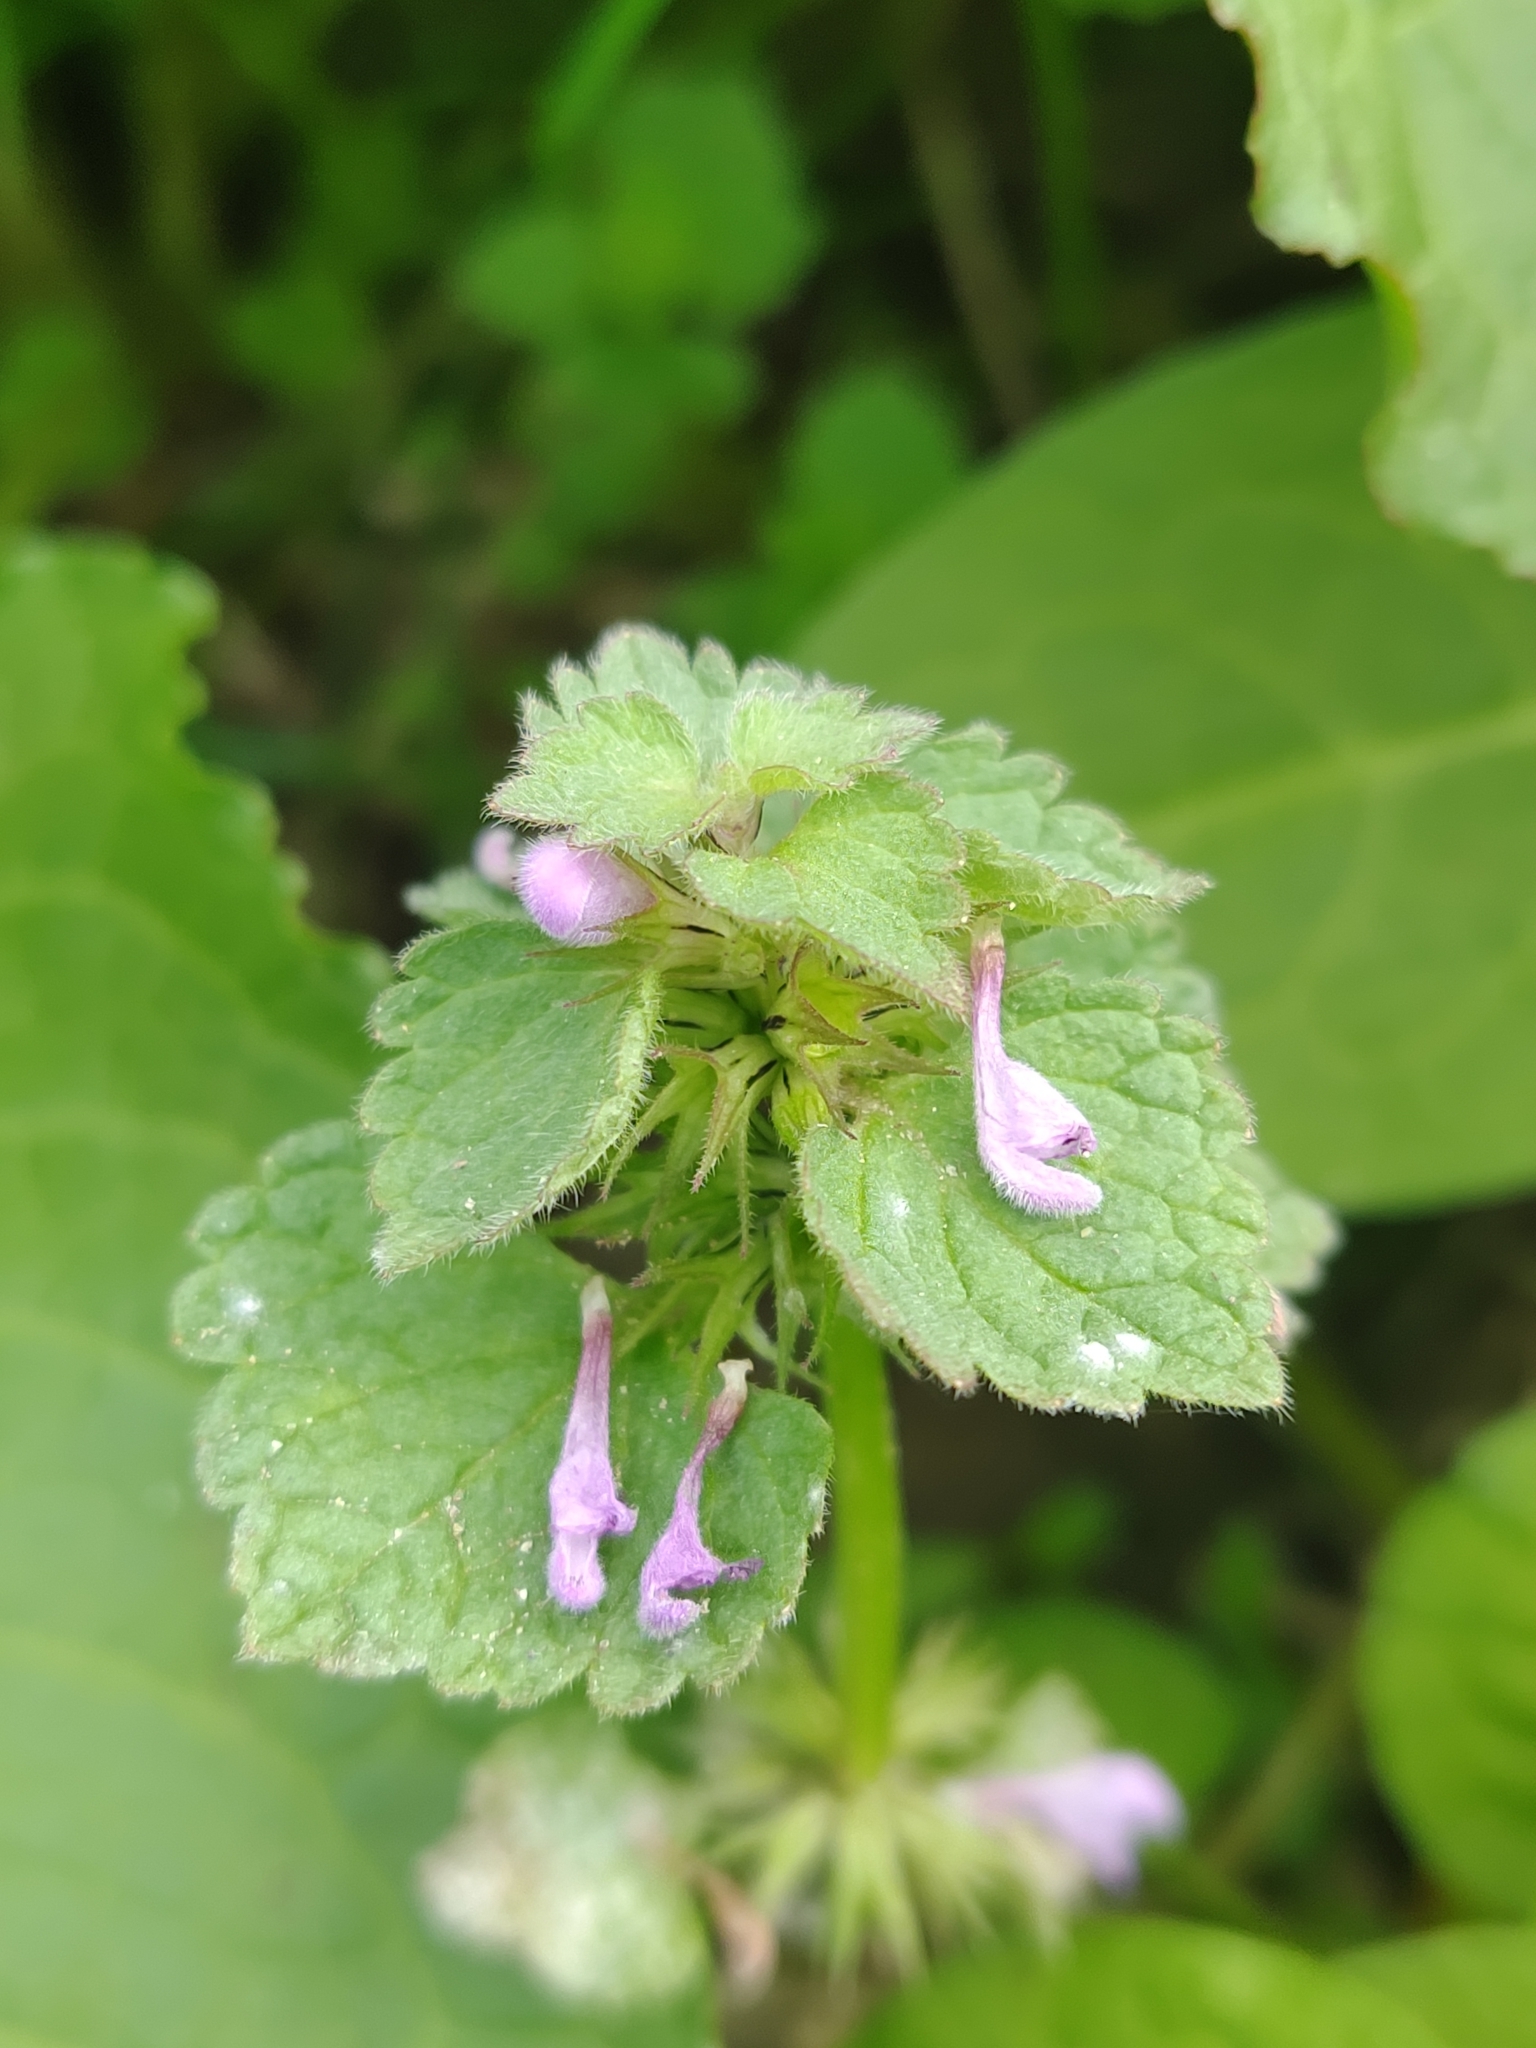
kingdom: Plantae
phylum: Tracheophyta
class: Magnoliopsida
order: Lamiales
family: Lamiaceae
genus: Lamium
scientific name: Lamium purpureum
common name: Red dead-nettle
